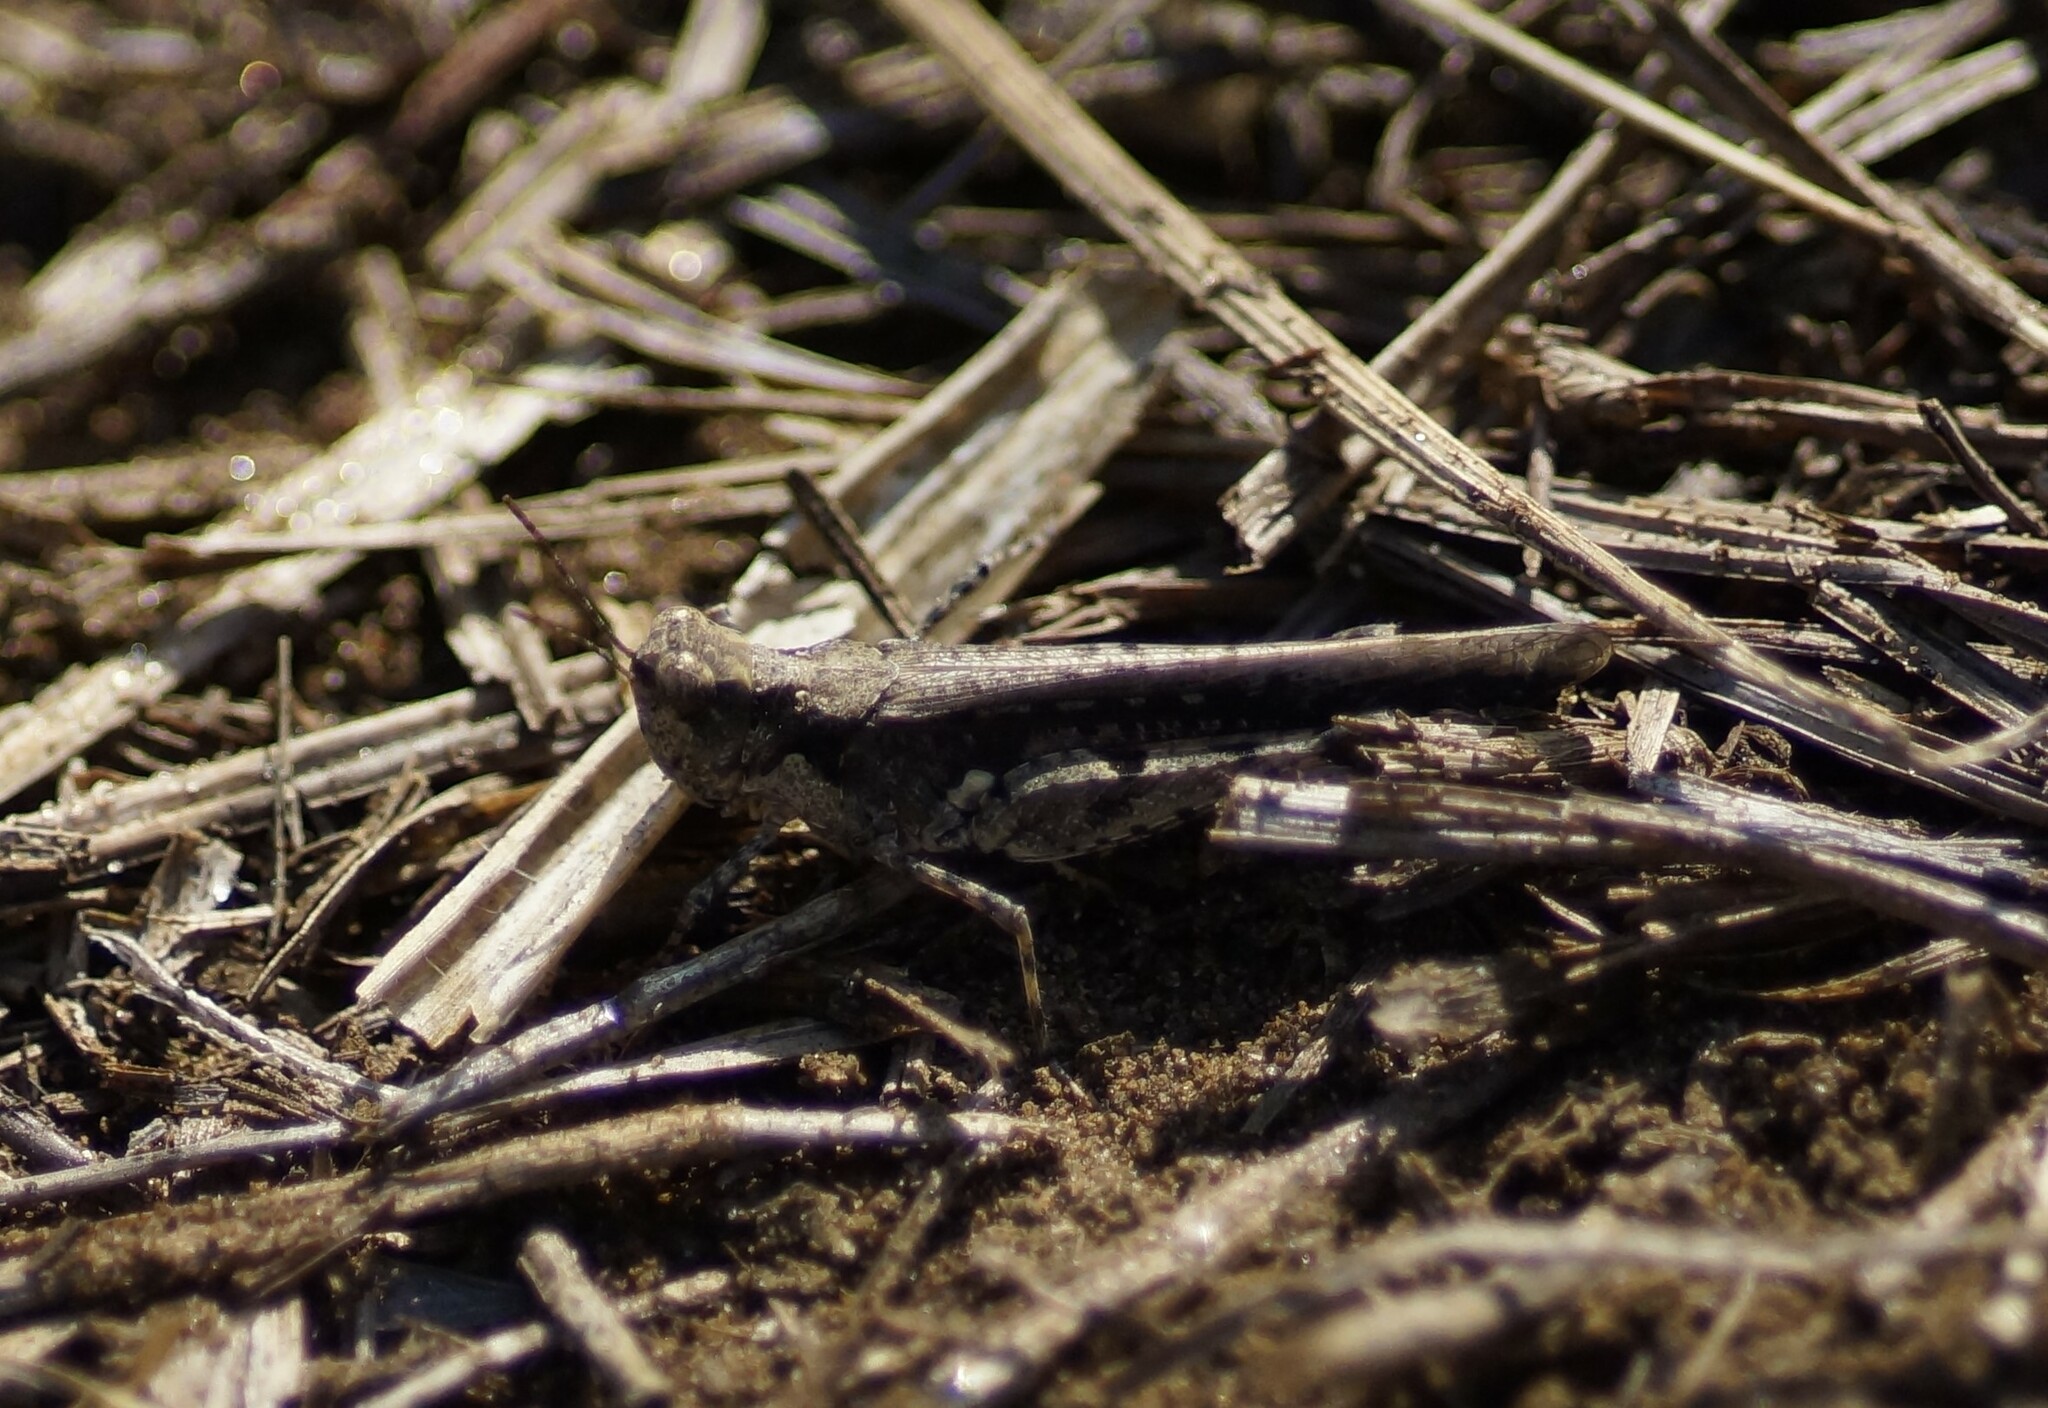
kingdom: Animalia
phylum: Arthropoda
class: Insecta
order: Orthoptera
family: Acrididae
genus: Pycnostictus
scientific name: Pycnostictus seriatus
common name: Common bandwing
